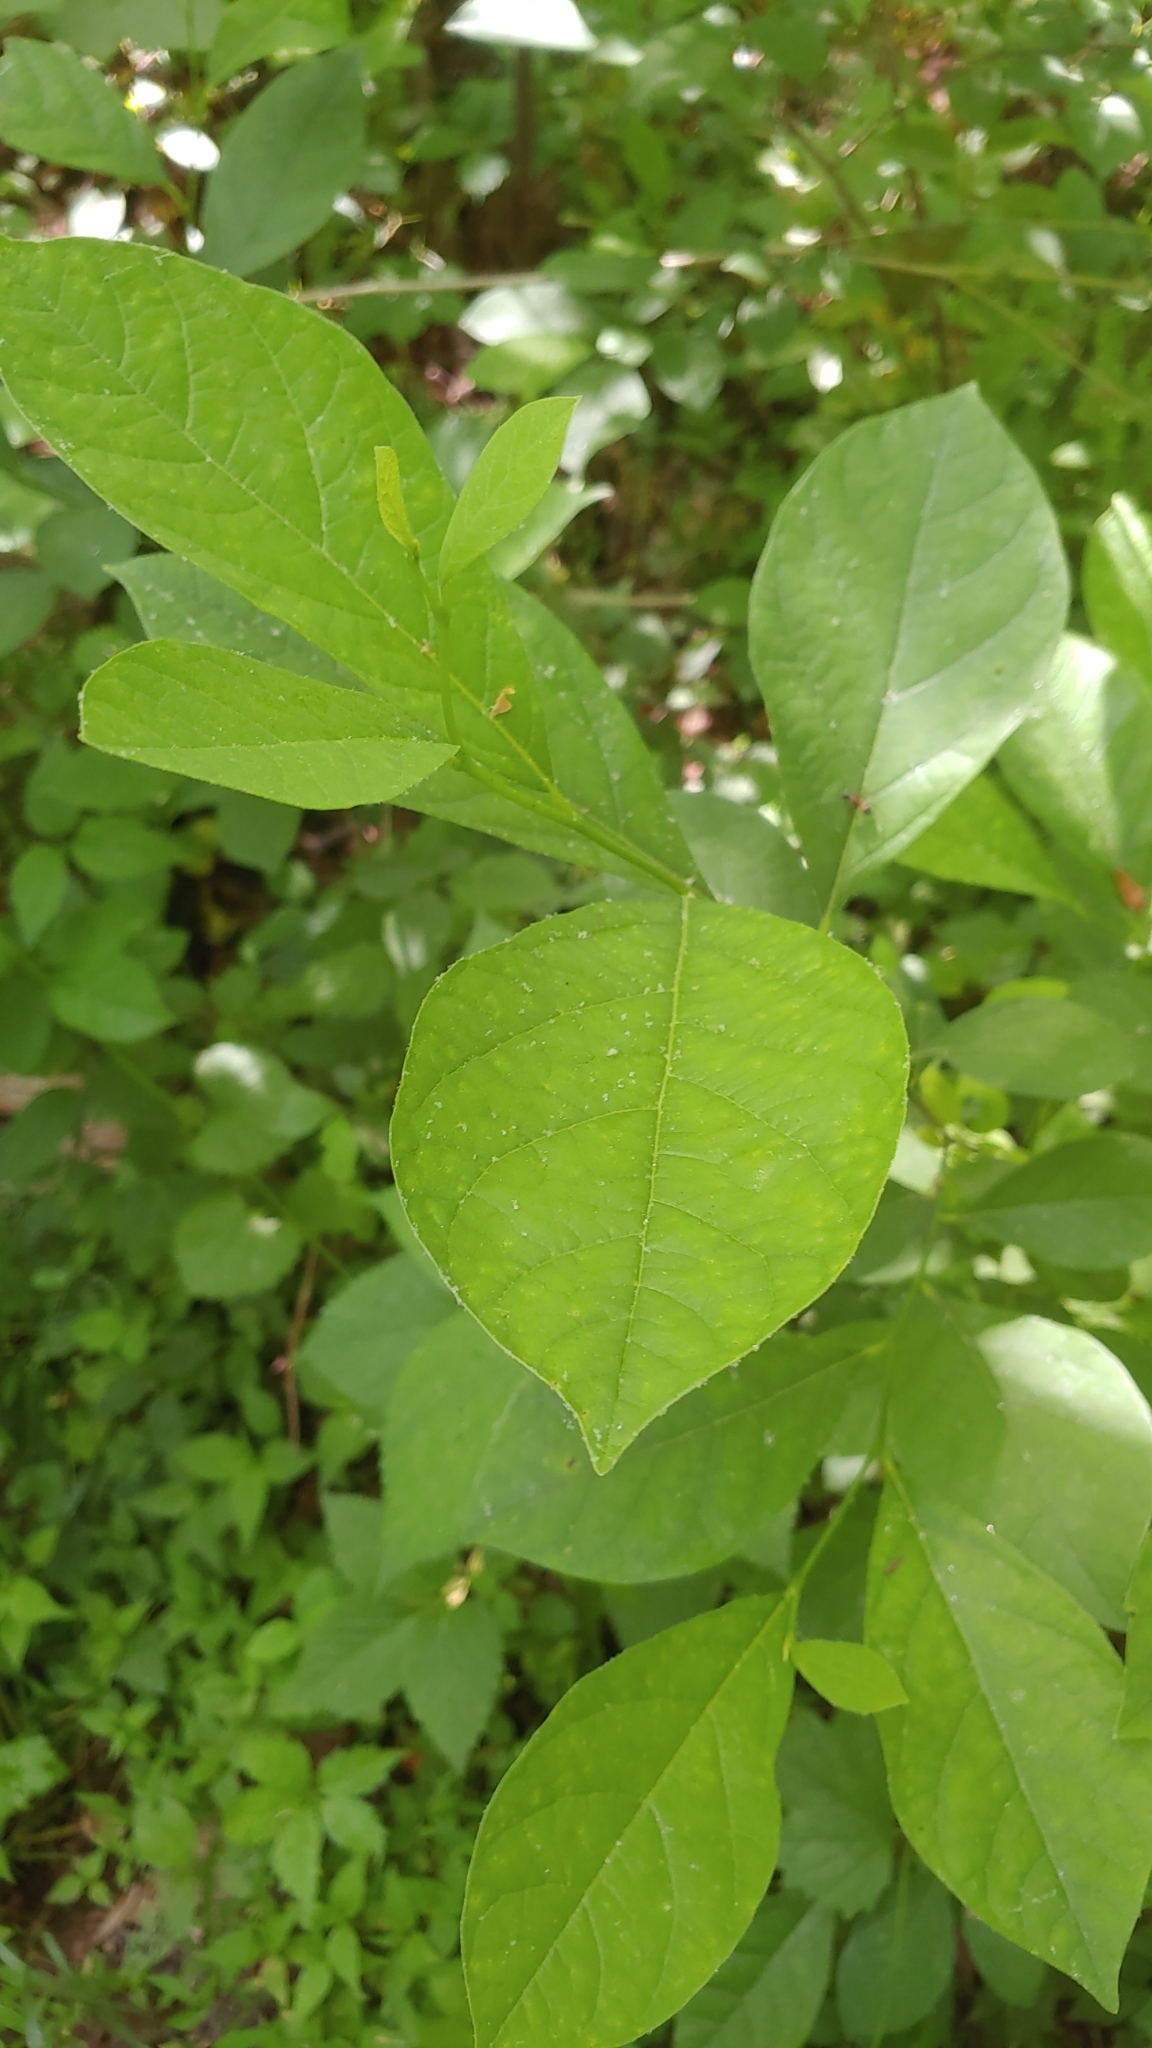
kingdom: Plantae
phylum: Tracheophyta
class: Magnoliopsida
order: Laurales
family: Lauraceae
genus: Lindera
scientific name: Lindera benzoin
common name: Spicebush
